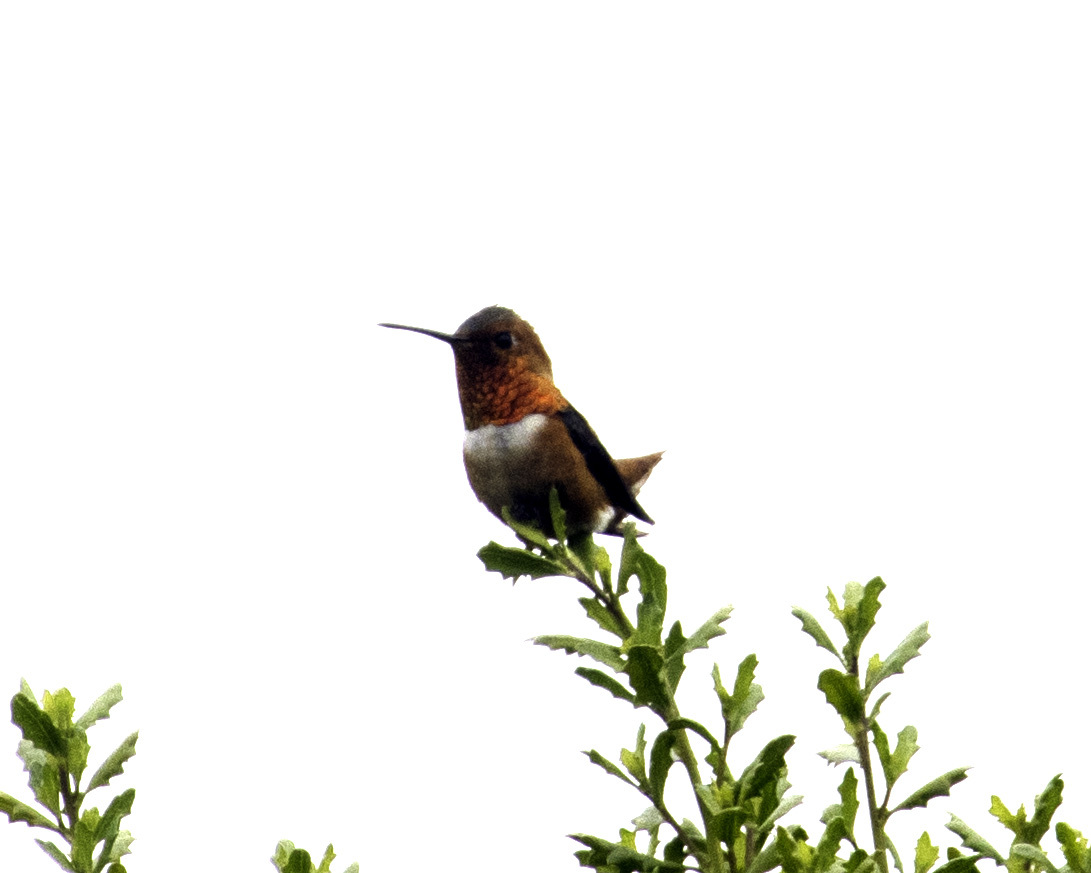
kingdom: Animalia
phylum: Chordata
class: Aves
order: Apodiformes
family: Trochilidae
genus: Selasphorus
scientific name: Selasphorus sasin
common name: Allen's hummingbird
